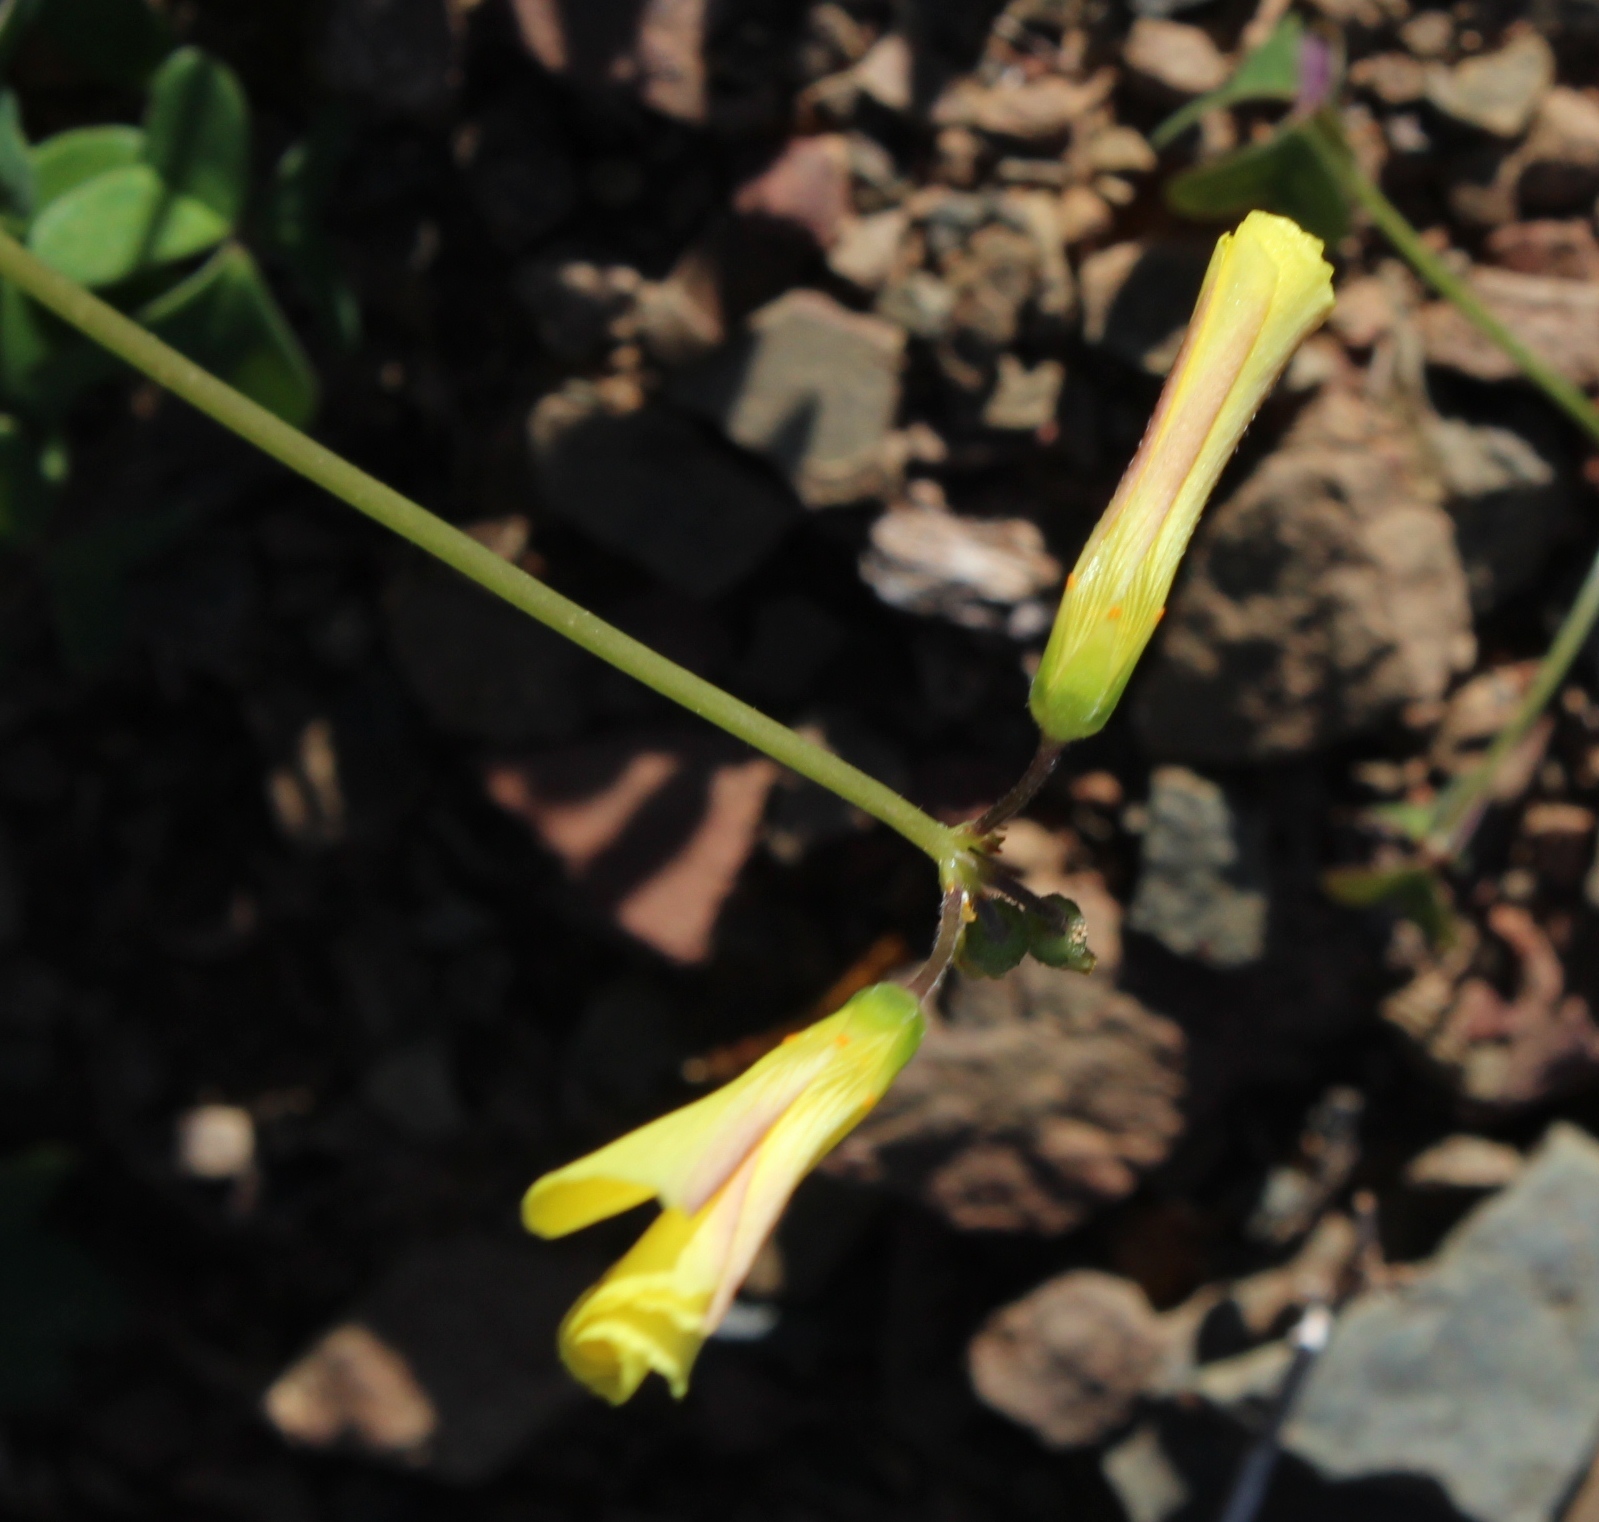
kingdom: Plantae
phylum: Tracheophyta
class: Magnoliopsida
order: Oxalidales
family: Oxalidaceae
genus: Oxalis
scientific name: Oxalis pes-caprae
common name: Bermuda-buttercup
